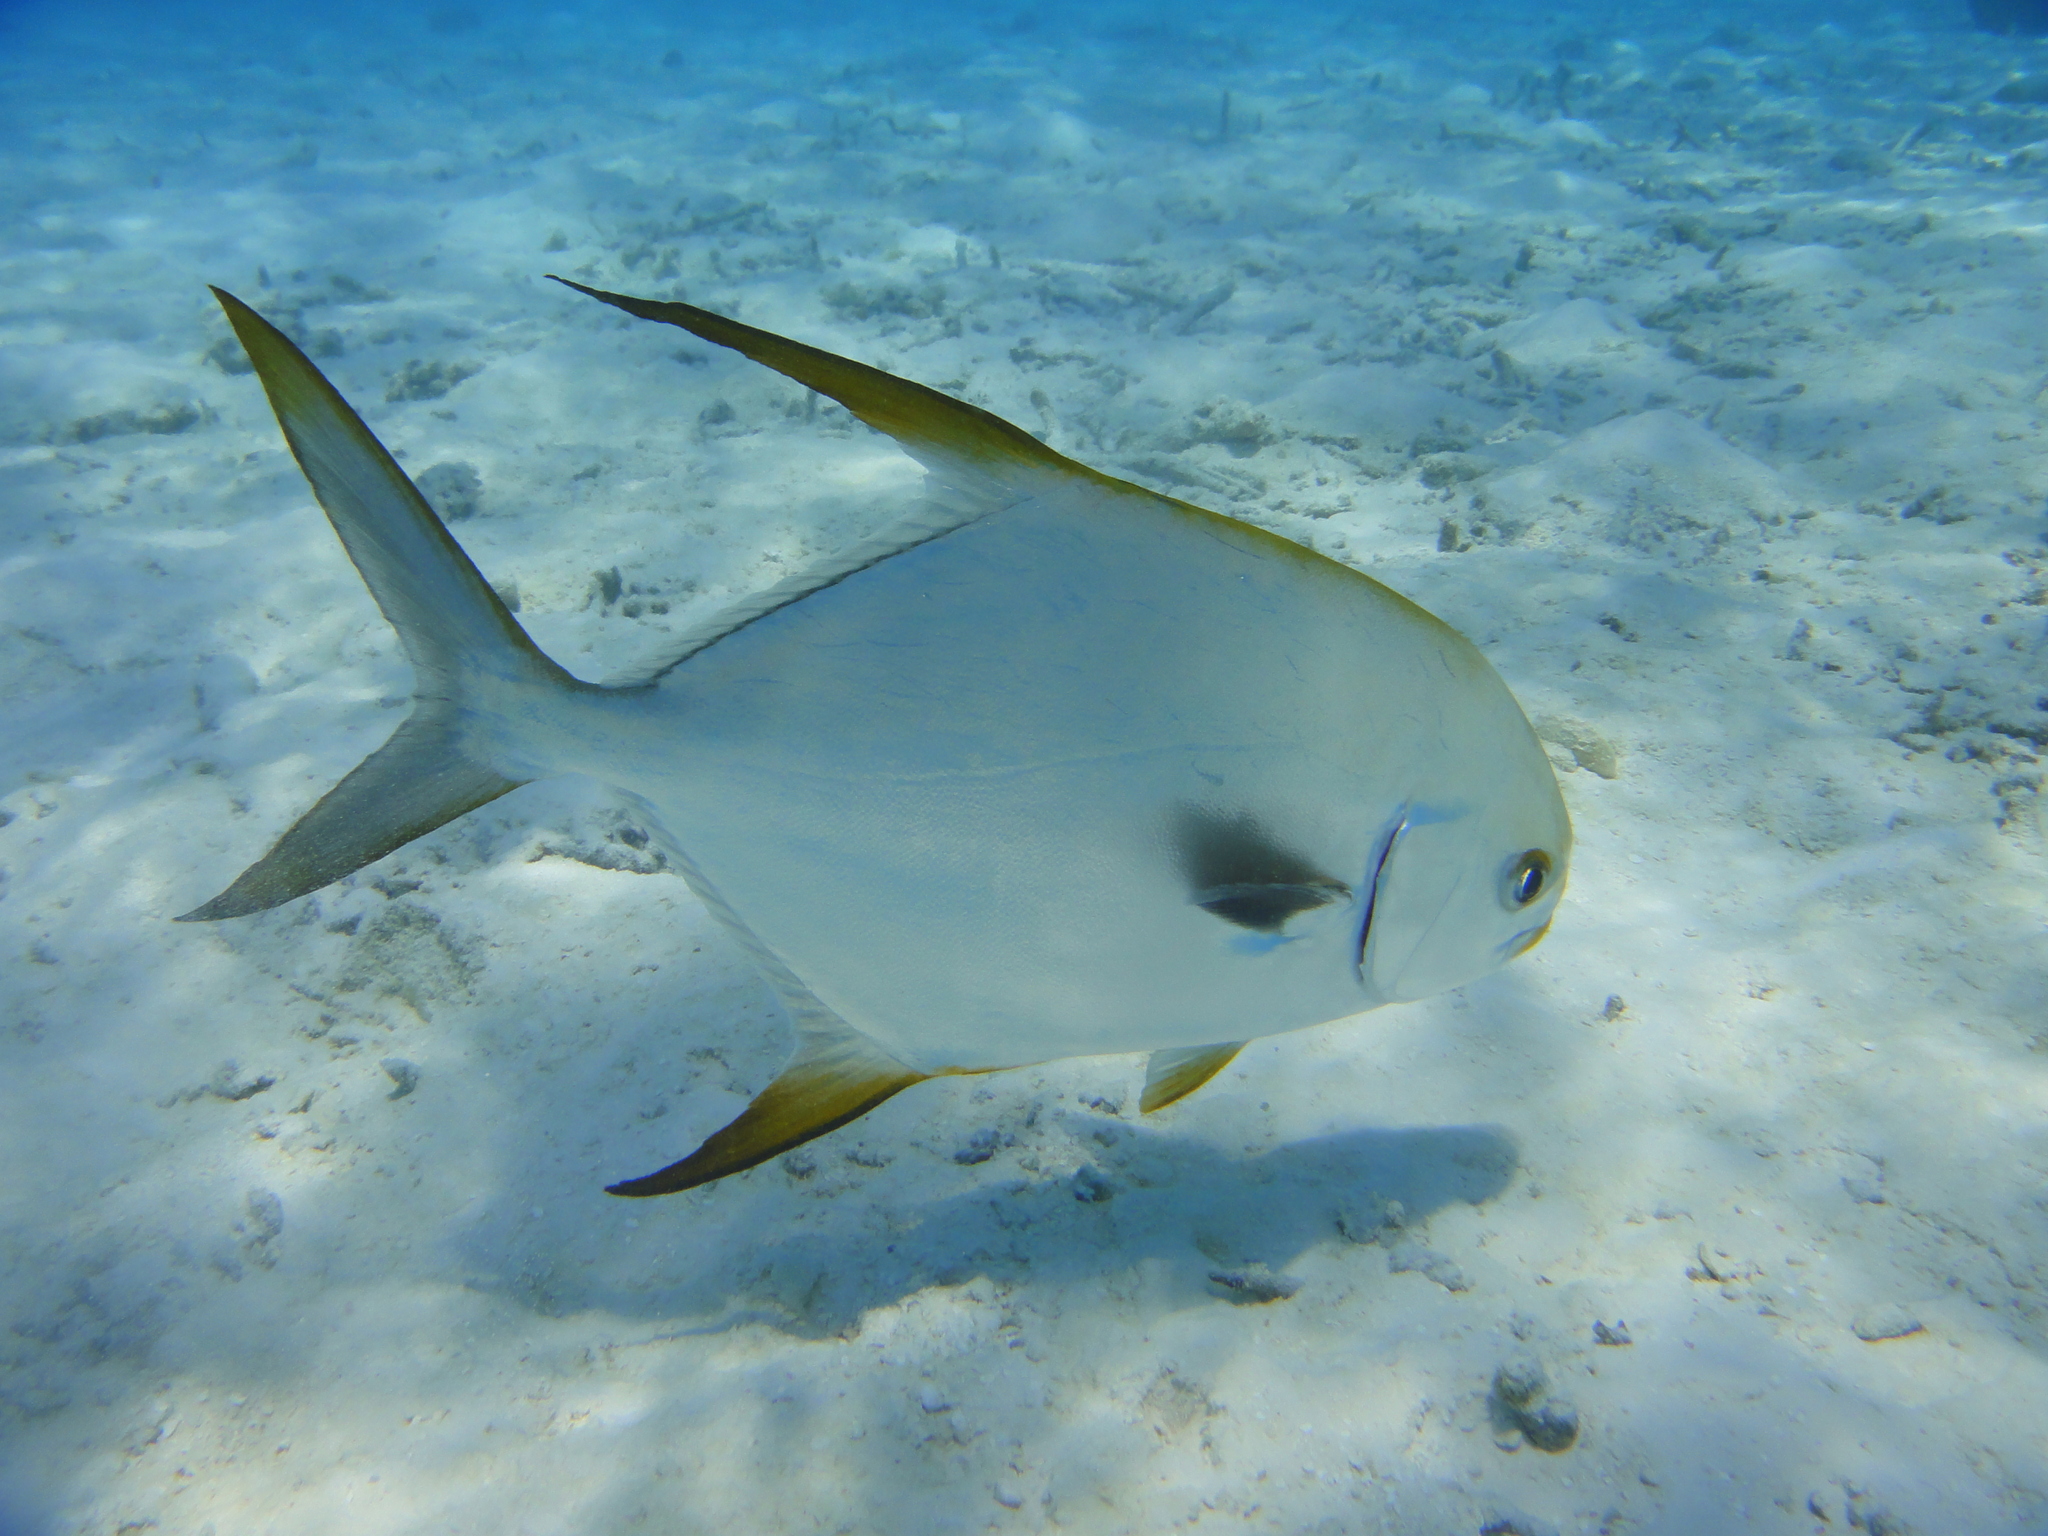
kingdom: Animalia
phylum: Chordata
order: Perciformes
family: Carangidae
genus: Trachinotus
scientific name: Trachinotus blochii
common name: Snubnose pompano
